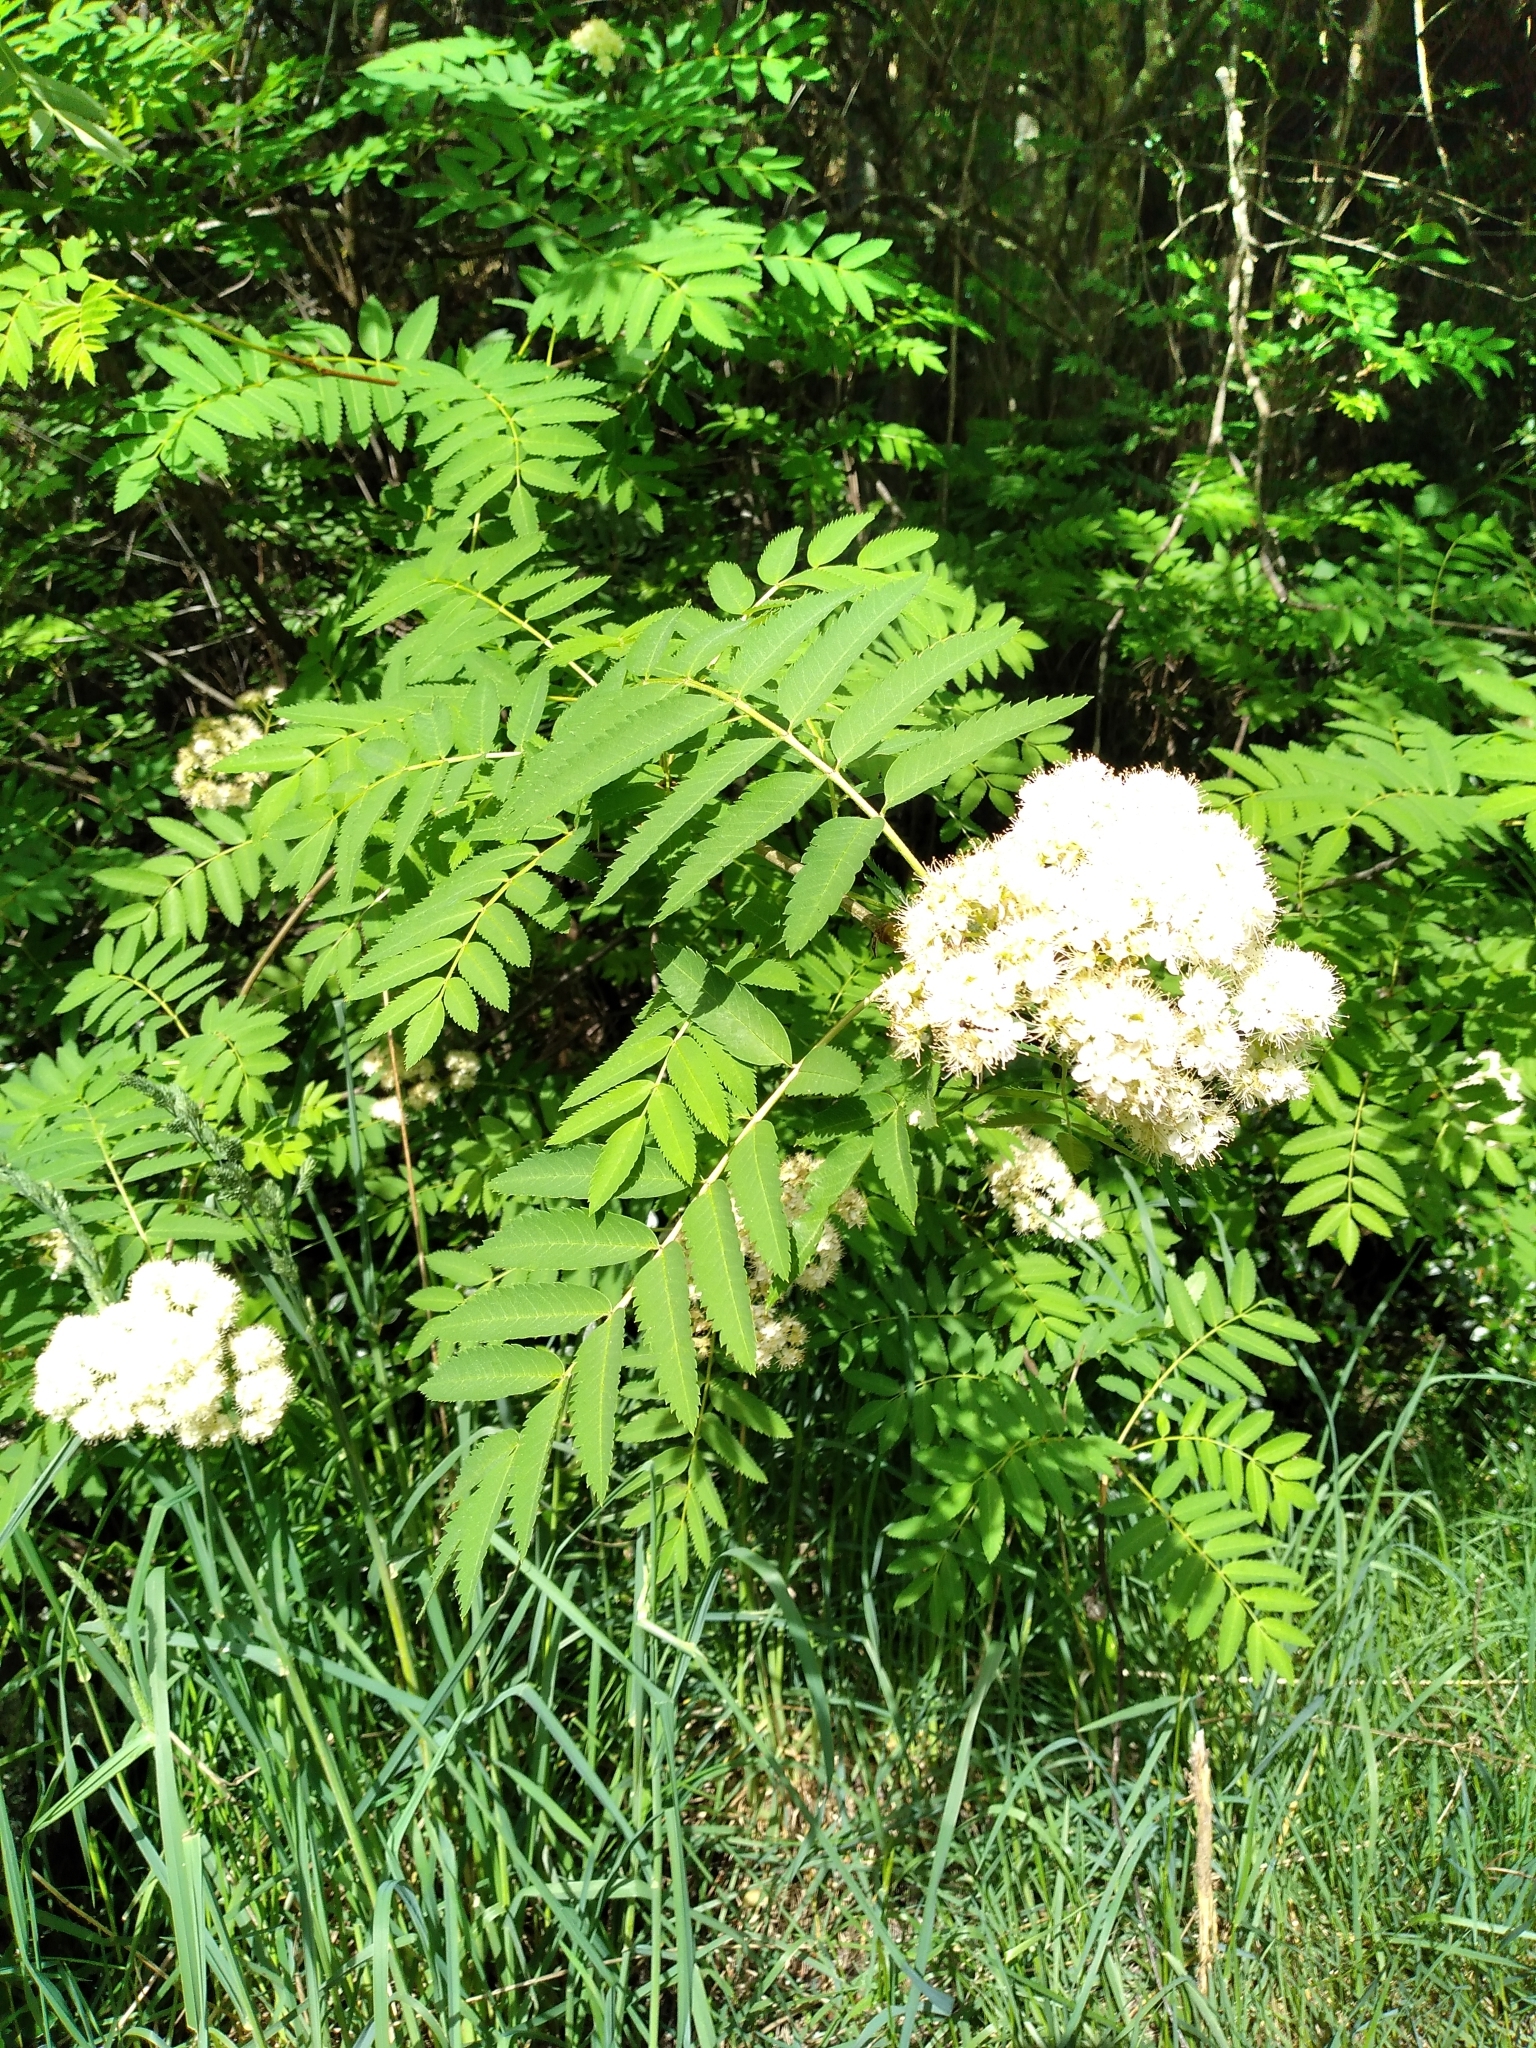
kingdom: Plantae
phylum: Tracheophyta
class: Magnoliopsida
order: Rosales
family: Rosaceae
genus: Sorbus
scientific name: Sorbus aucuparia
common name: Rowan
